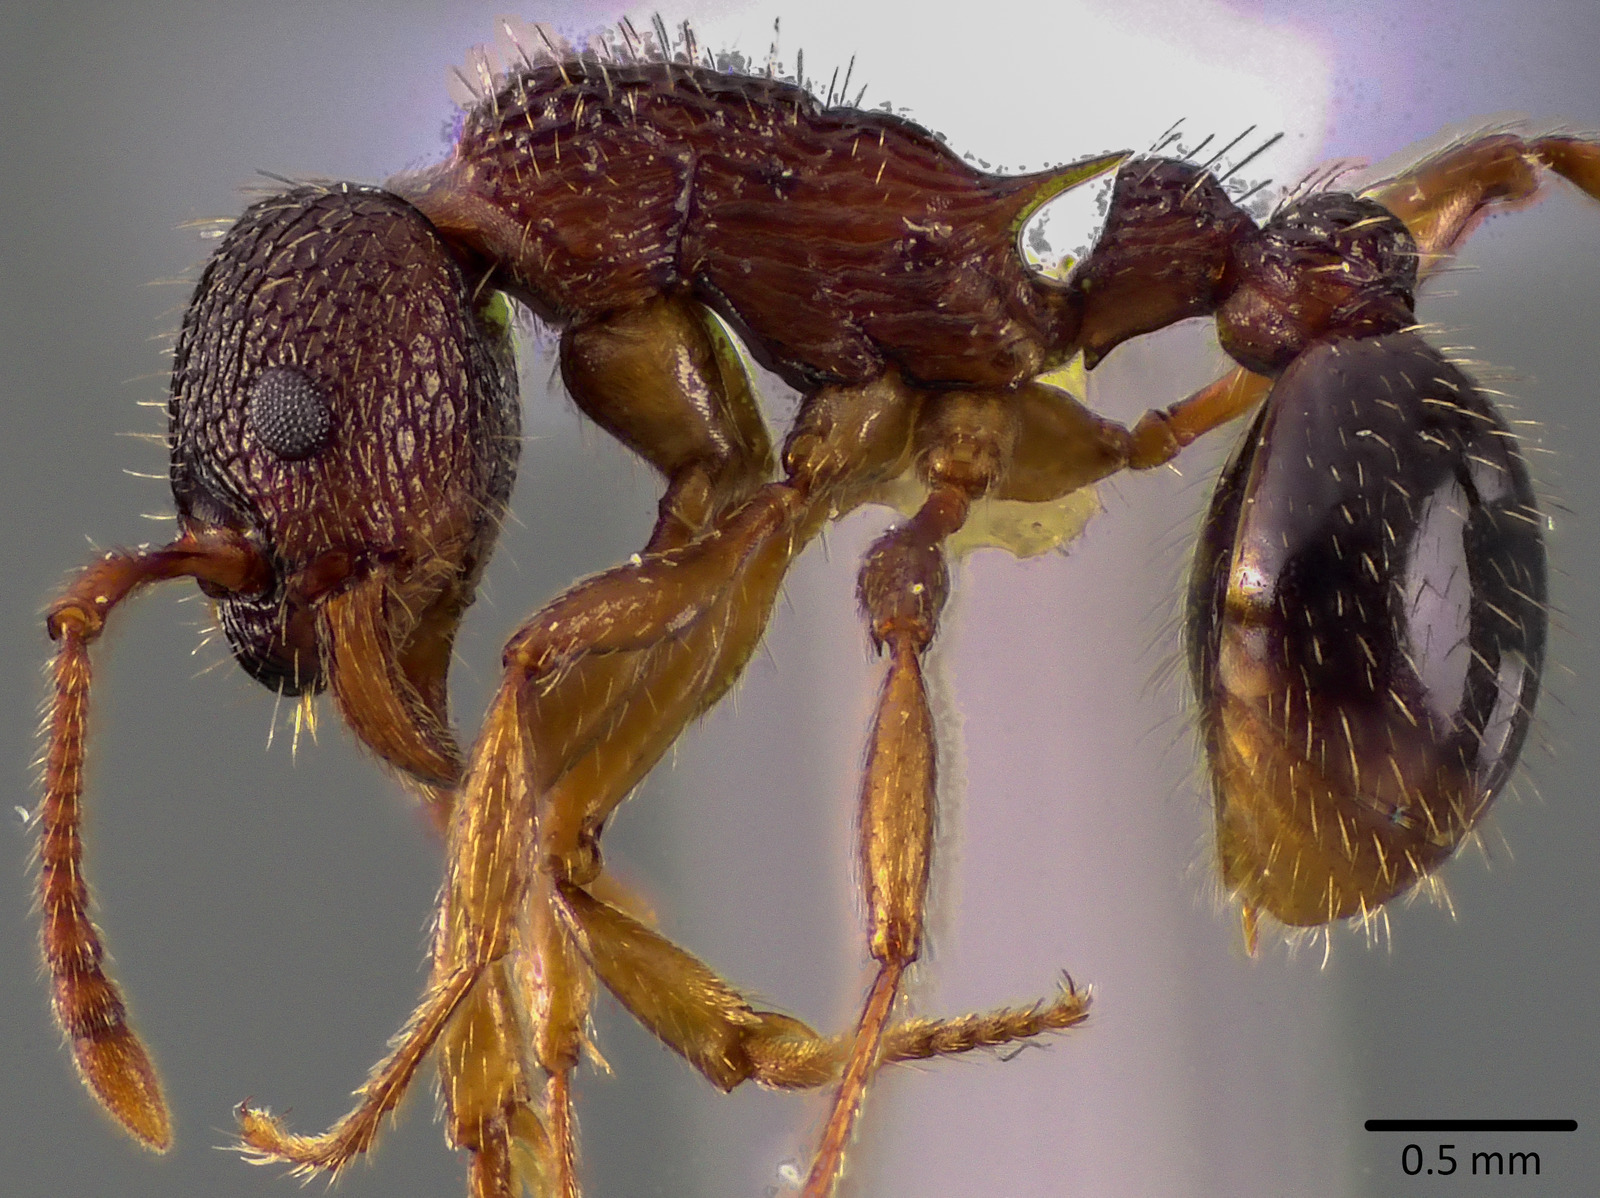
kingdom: Animalia
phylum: Arthropoda
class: Insecta
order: Hymenoptera
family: Formicidae
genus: Myrmica
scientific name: Myrmica spatulata
